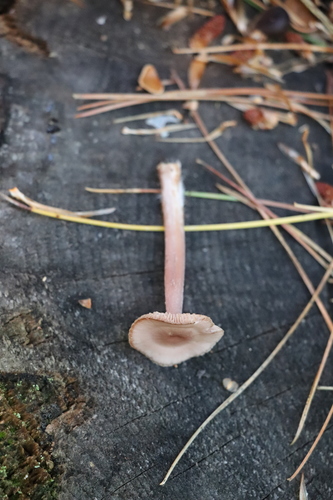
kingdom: Fungi
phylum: Basidiomycota
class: Agaricomycetes
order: Agaricales
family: Mycenaceae
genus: Mycena
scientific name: Mycena pura
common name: Lilac bonnet
